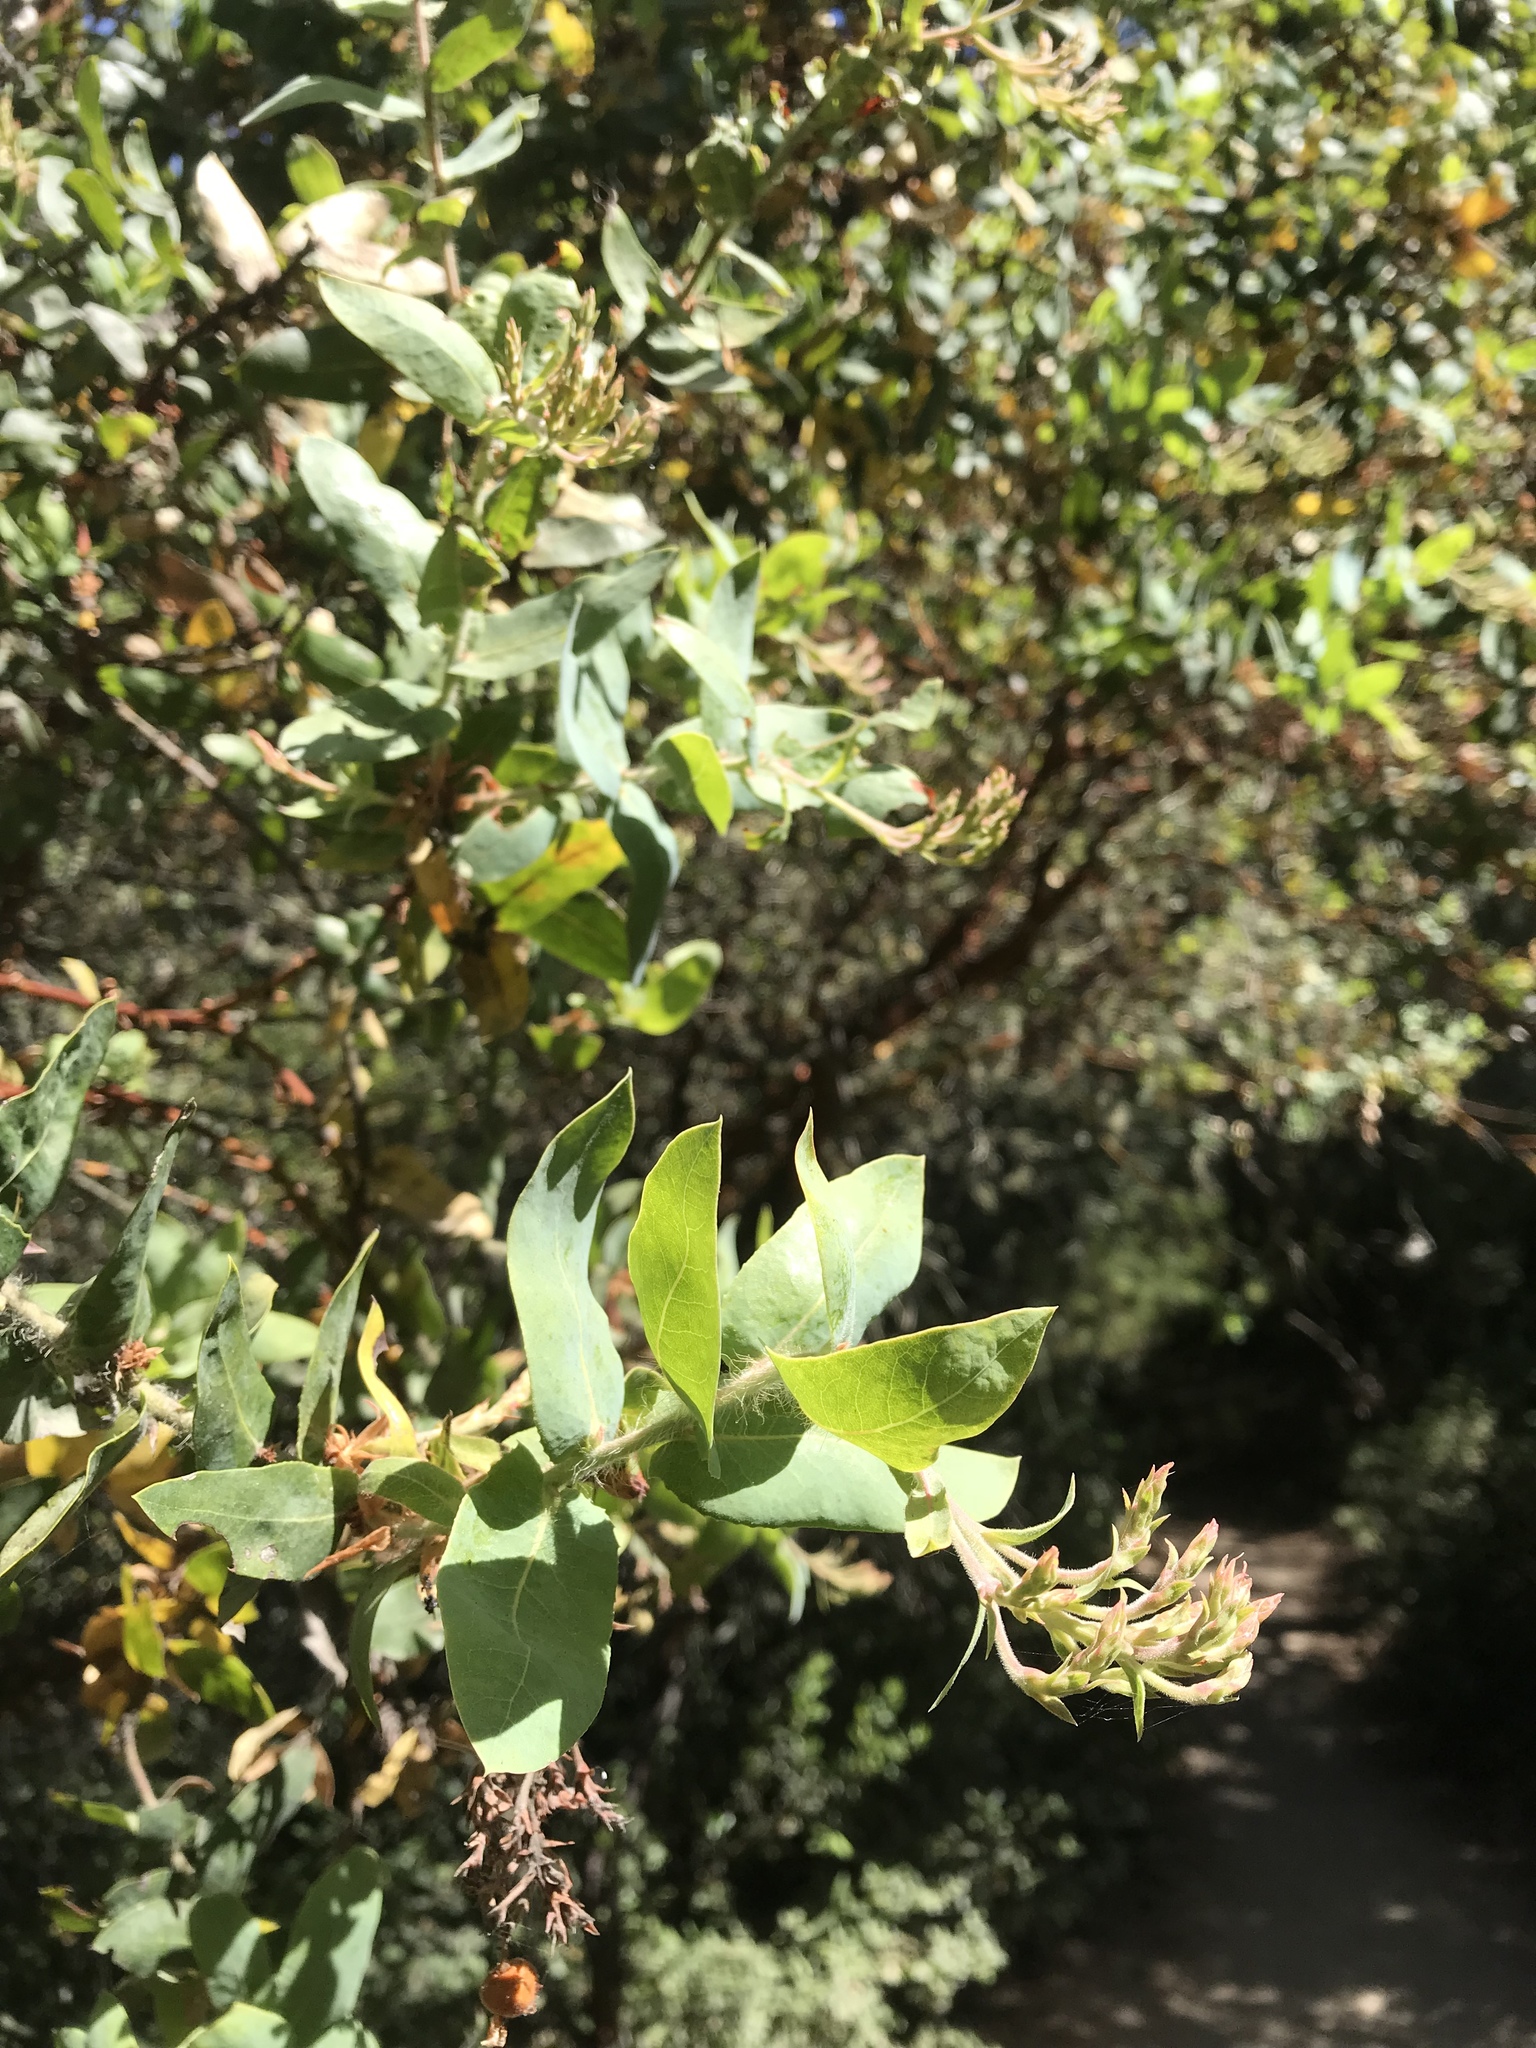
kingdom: Plantae
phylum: Tracheophyta
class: Magnoliopsida
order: Ericales
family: Ericaceae
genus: Arctostaphylos
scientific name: Arctostaphylos andersonii
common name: Santa cruz manzanita
